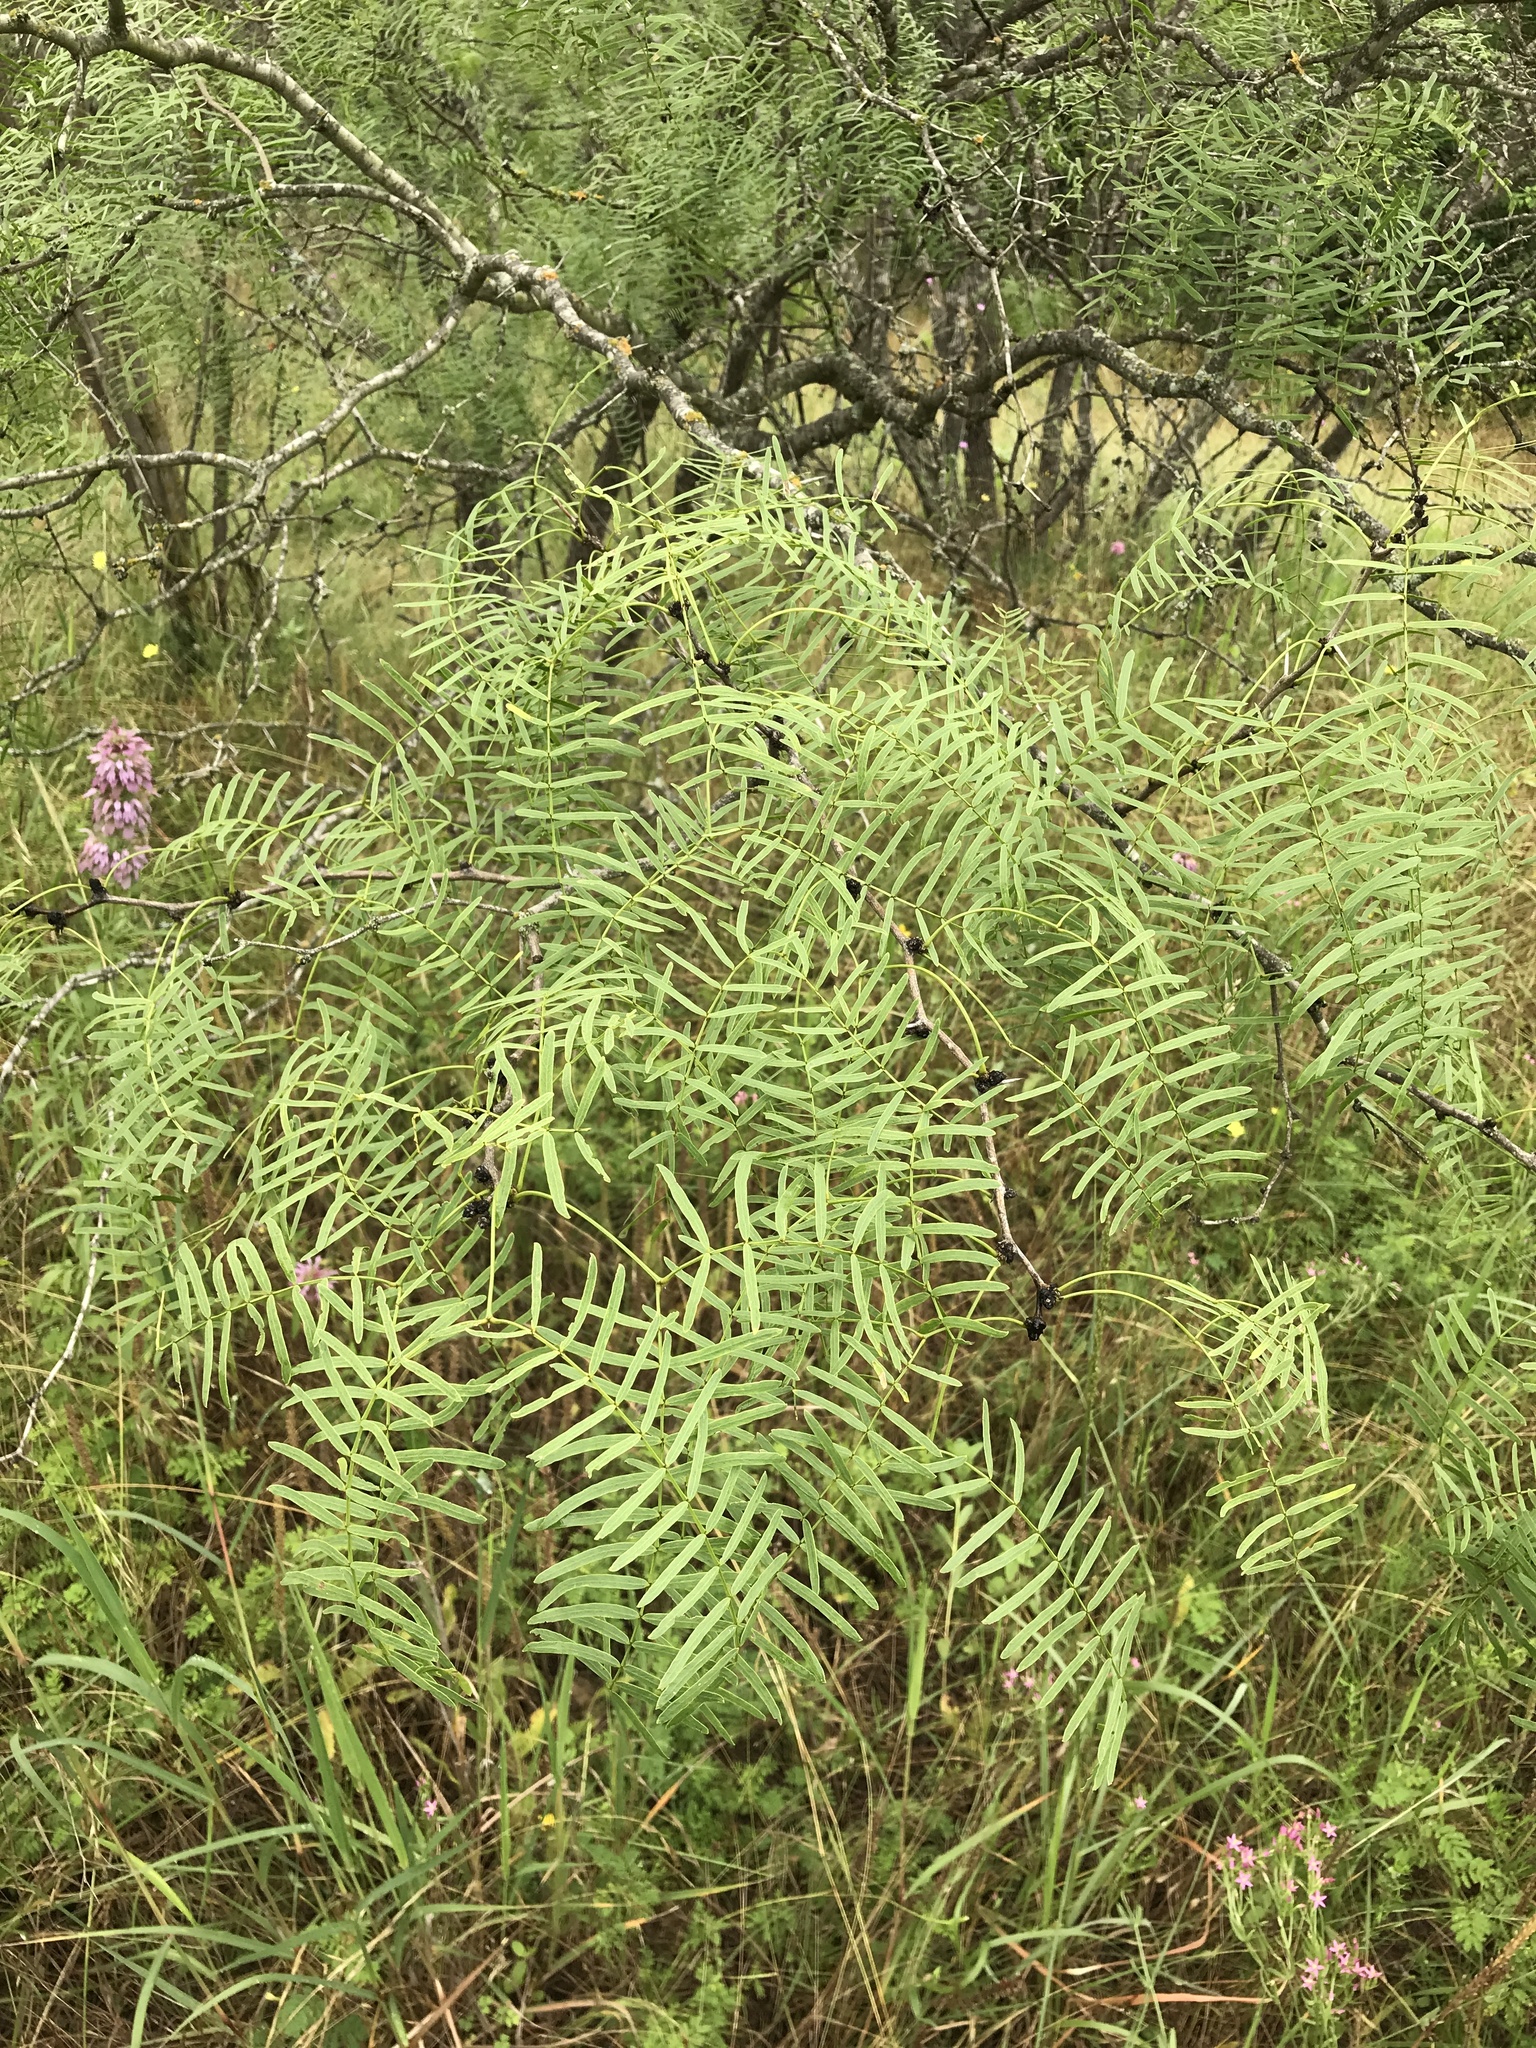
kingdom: Plantae
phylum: Tracheophyta
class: Magnoliopsida
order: Fabales
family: Fabaceae
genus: Prosopis
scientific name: Prosopis glandulosa
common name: Honey mesquite
